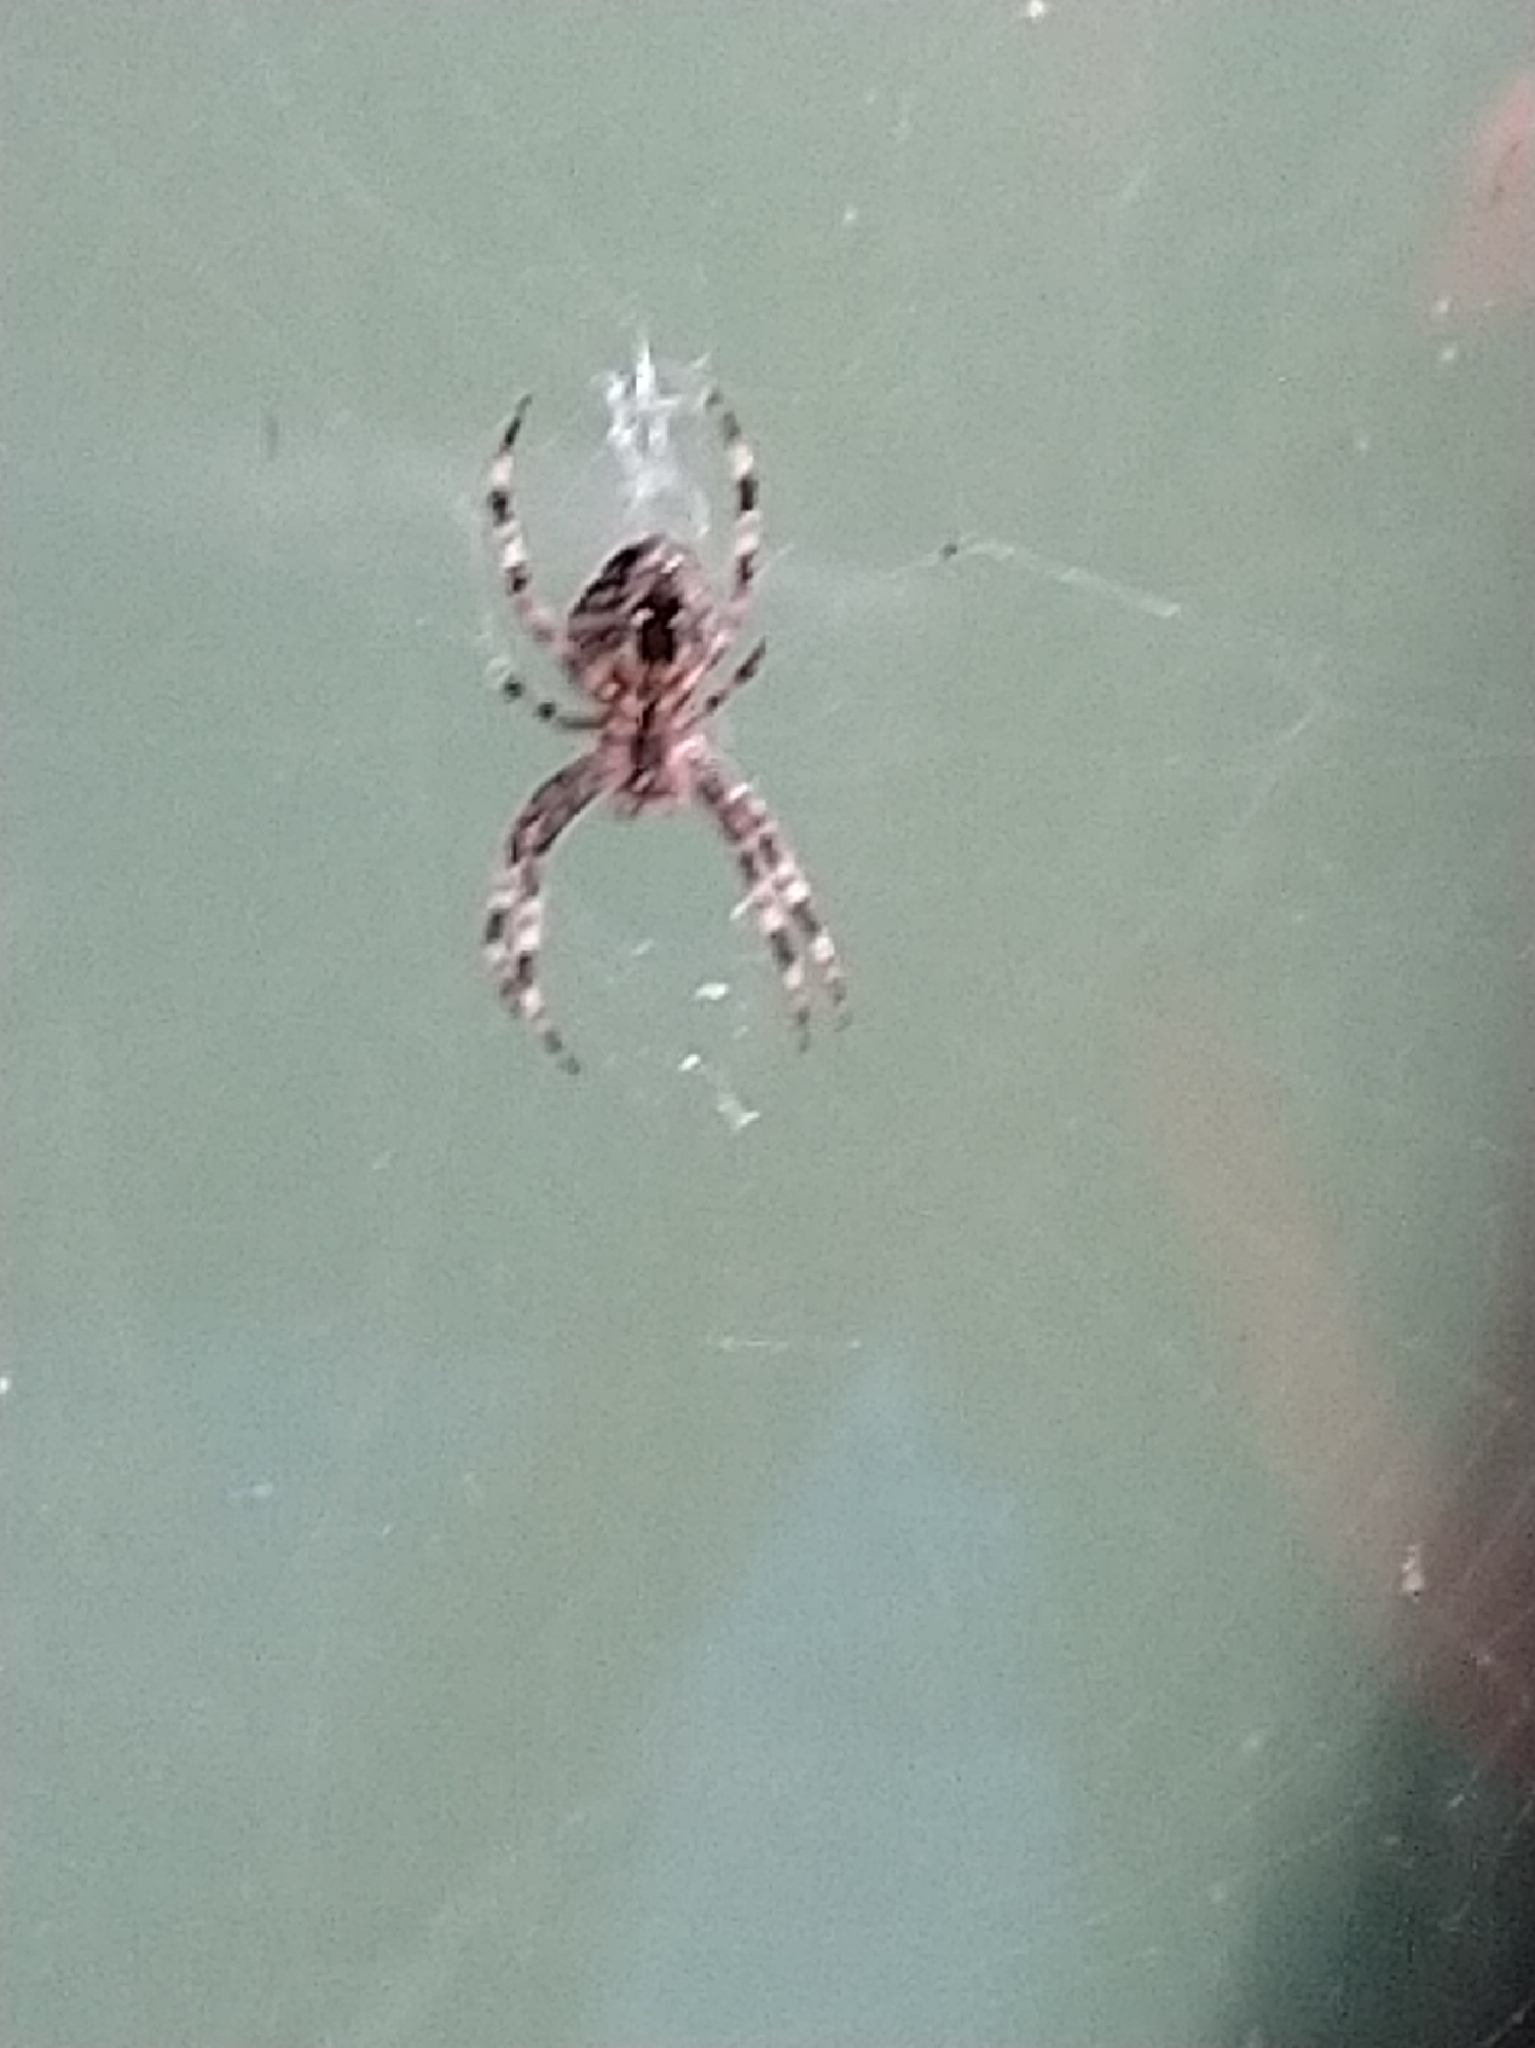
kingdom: Animalia
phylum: Arthropoda
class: Arachnida
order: Araneae
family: Araneidae
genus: Araneus
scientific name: Araneus diadematus
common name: Cross orbweaver
